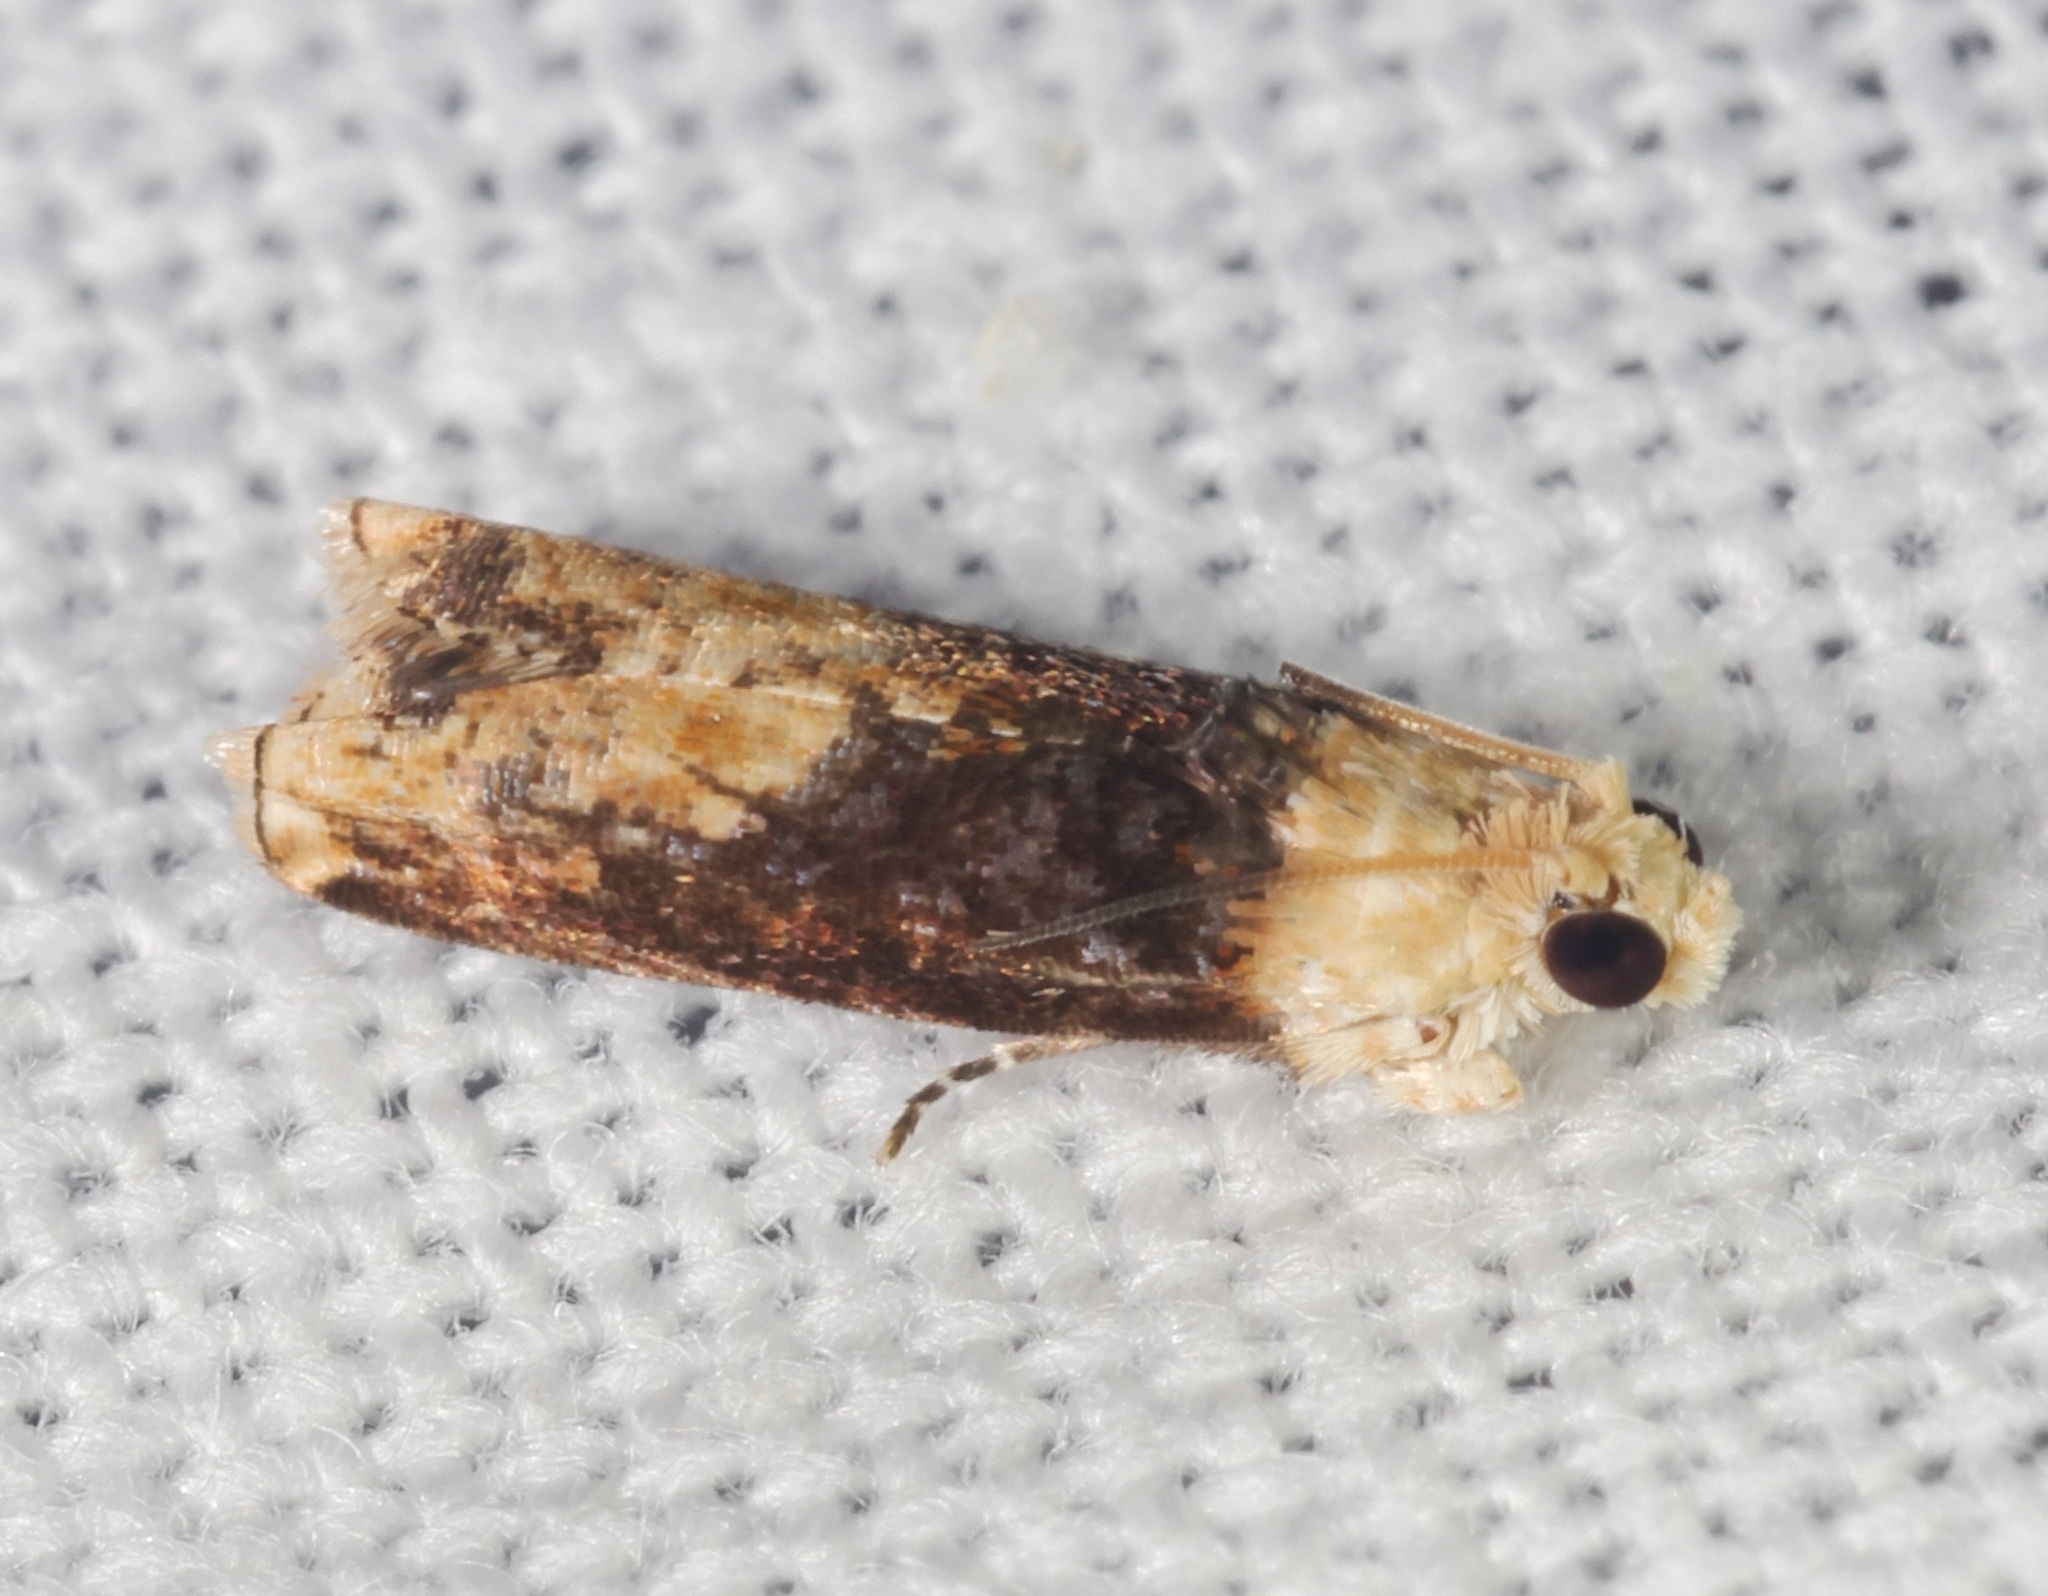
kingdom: Animalia
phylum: Arthropoda
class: Insecta
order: Lepidoptera
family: Tortricidae
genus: Hedya
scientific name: Hedya iophaea
